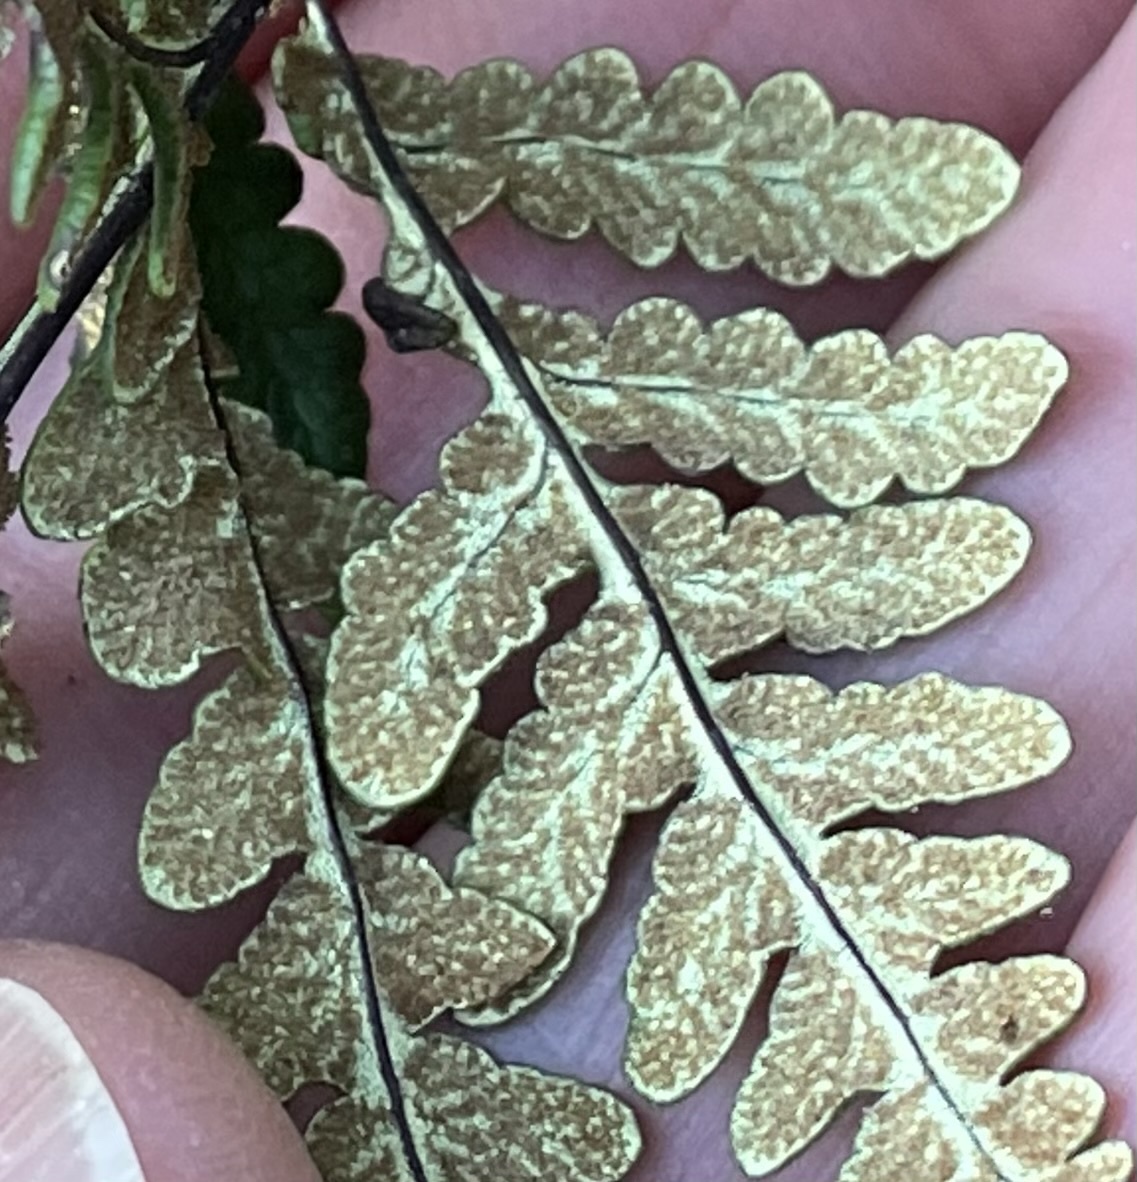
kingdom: Plantae
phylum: Tracheophyta
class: Polypodiopsida
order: Polypodiales
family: Pteridaceae
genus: Pentagramma
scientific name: Pentagramma triangularis
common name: Gold fern
